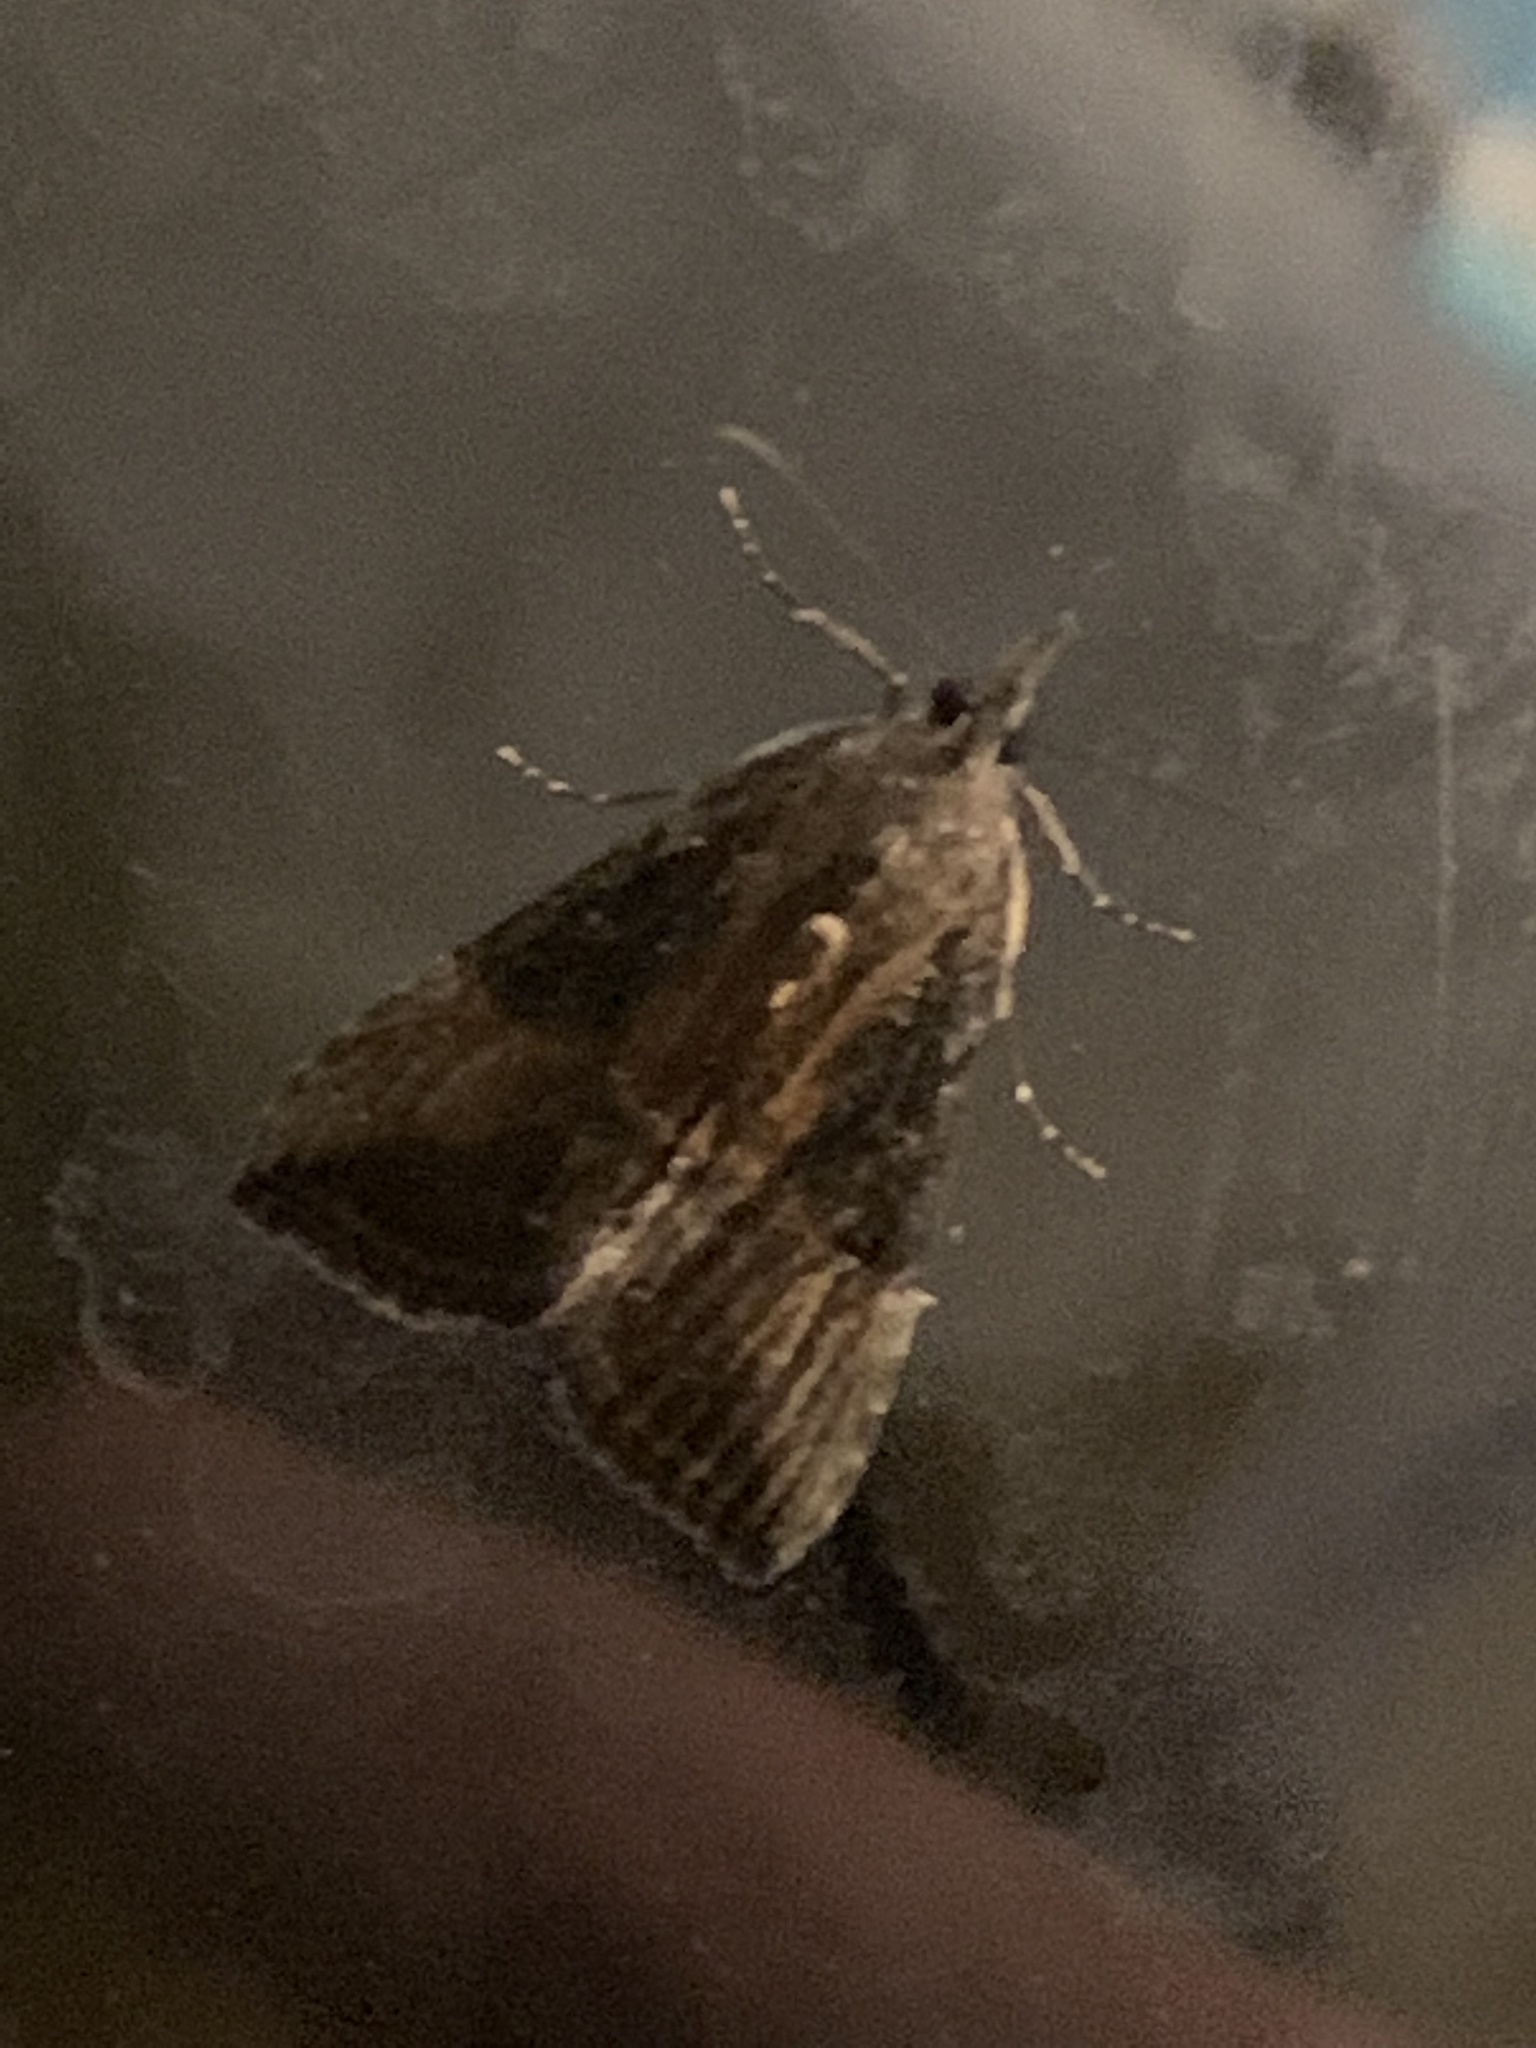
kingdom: Animalia
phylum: Arthropoda
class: Insecta
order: Lepidoptera
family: Erebidae
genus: Hypena
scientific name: Hypena scabra
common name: Green cloverworm
